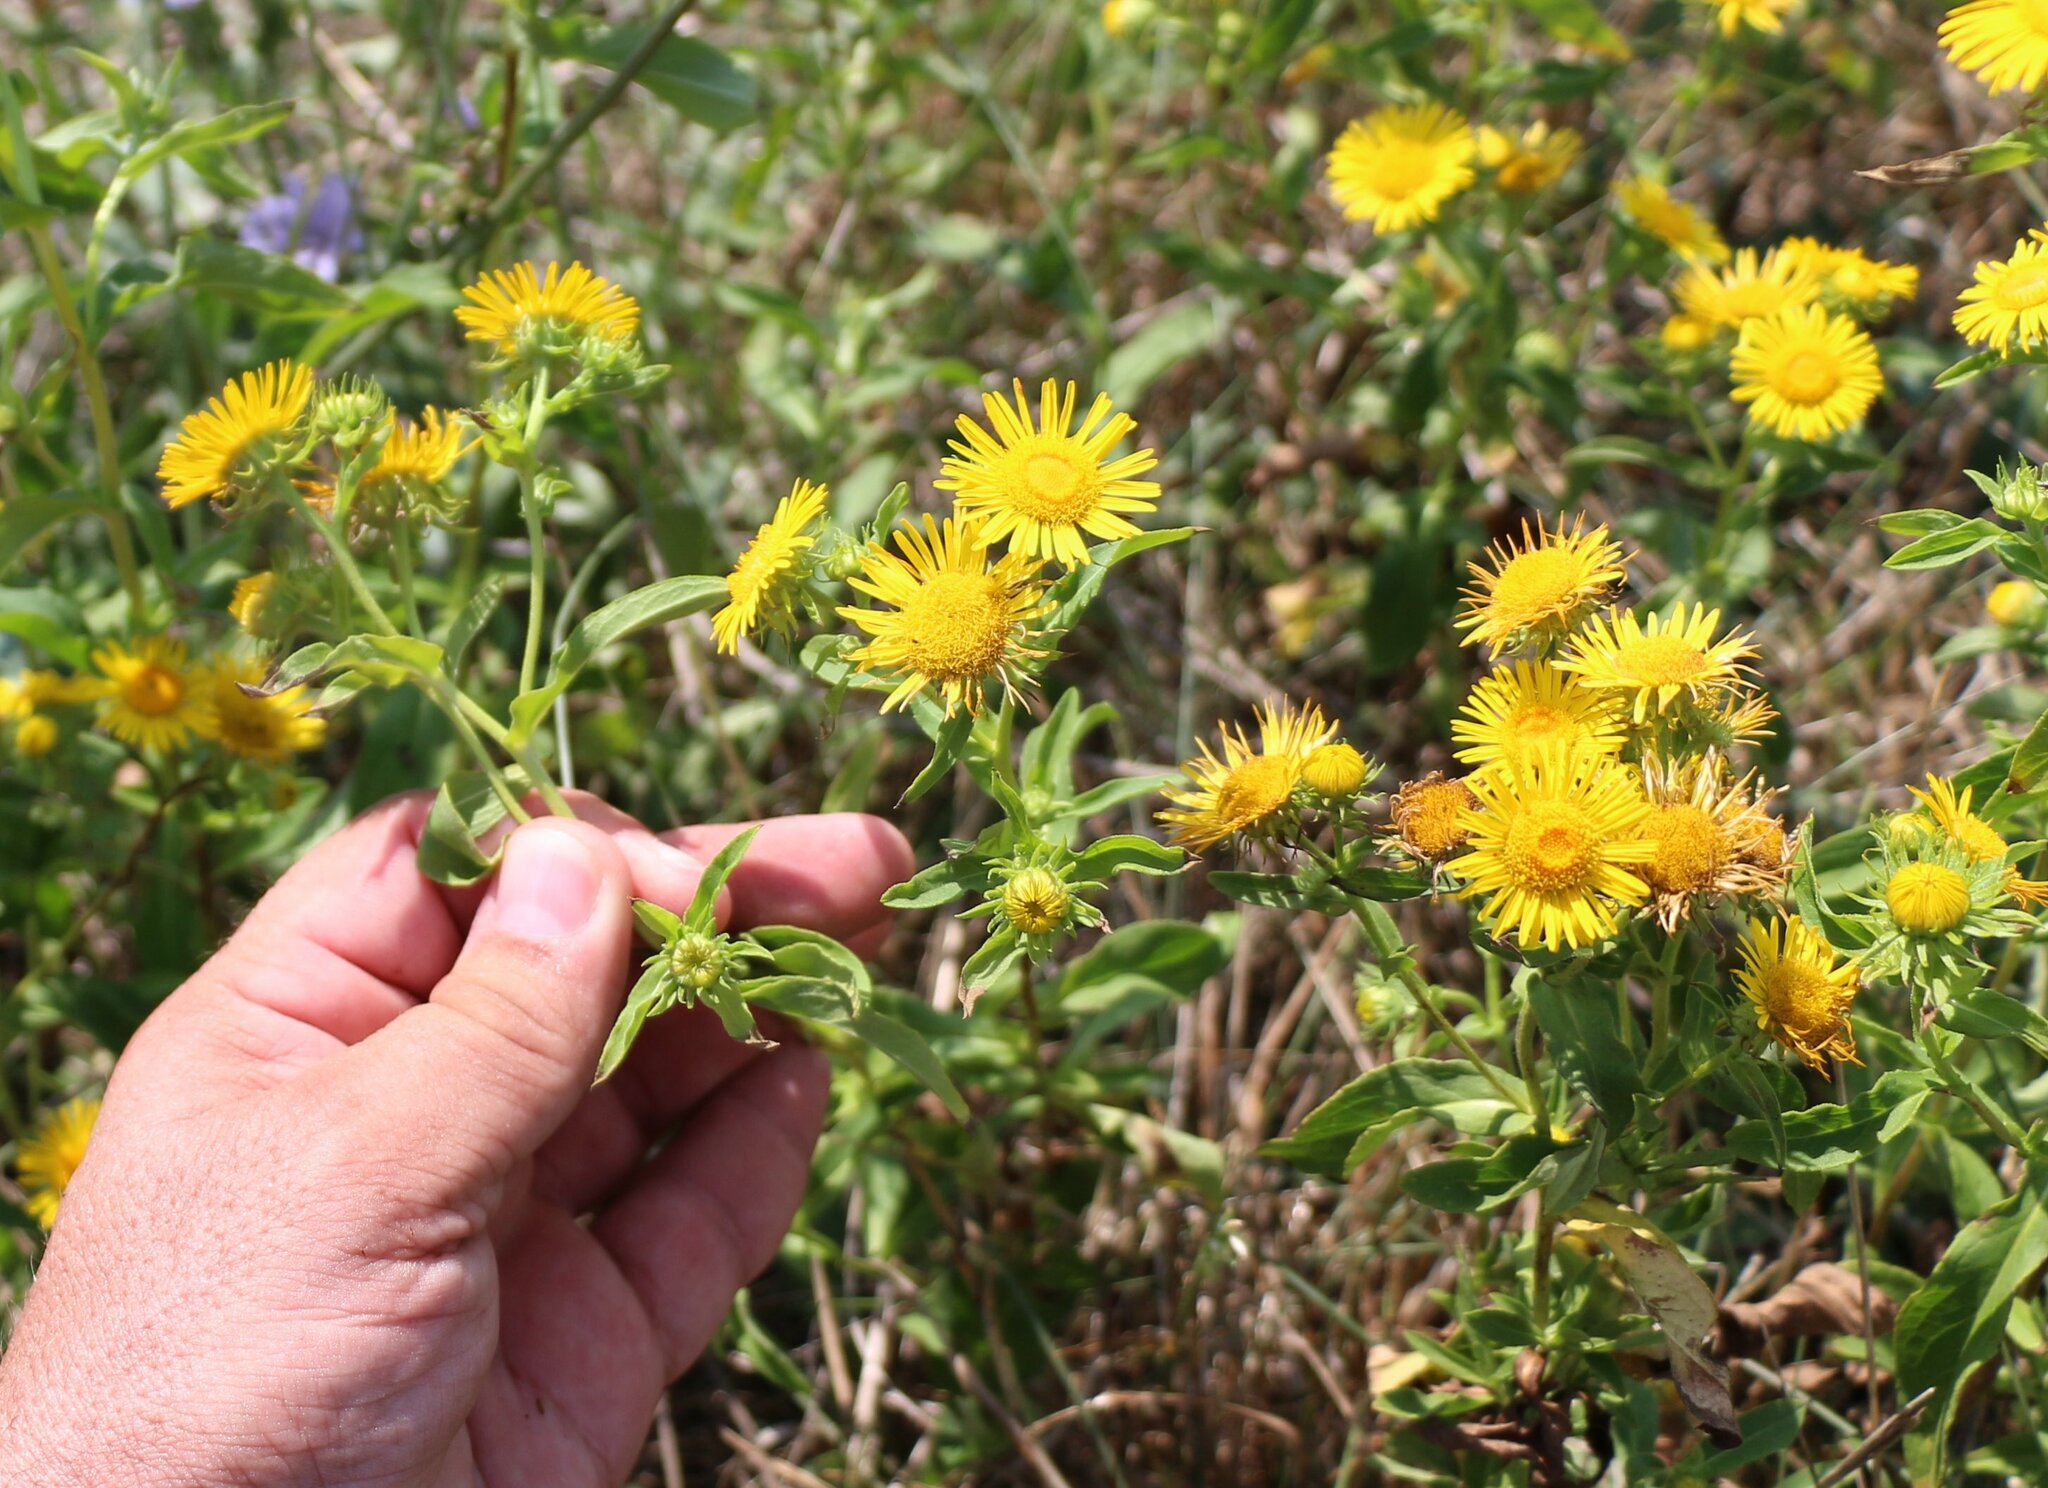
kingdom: Plantae
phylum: Tracheophyta
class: Magnoliopsida
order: Asterales
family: Asteraceae
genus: Pentanema
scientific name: Pentanema britannicum
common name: British elecampane
